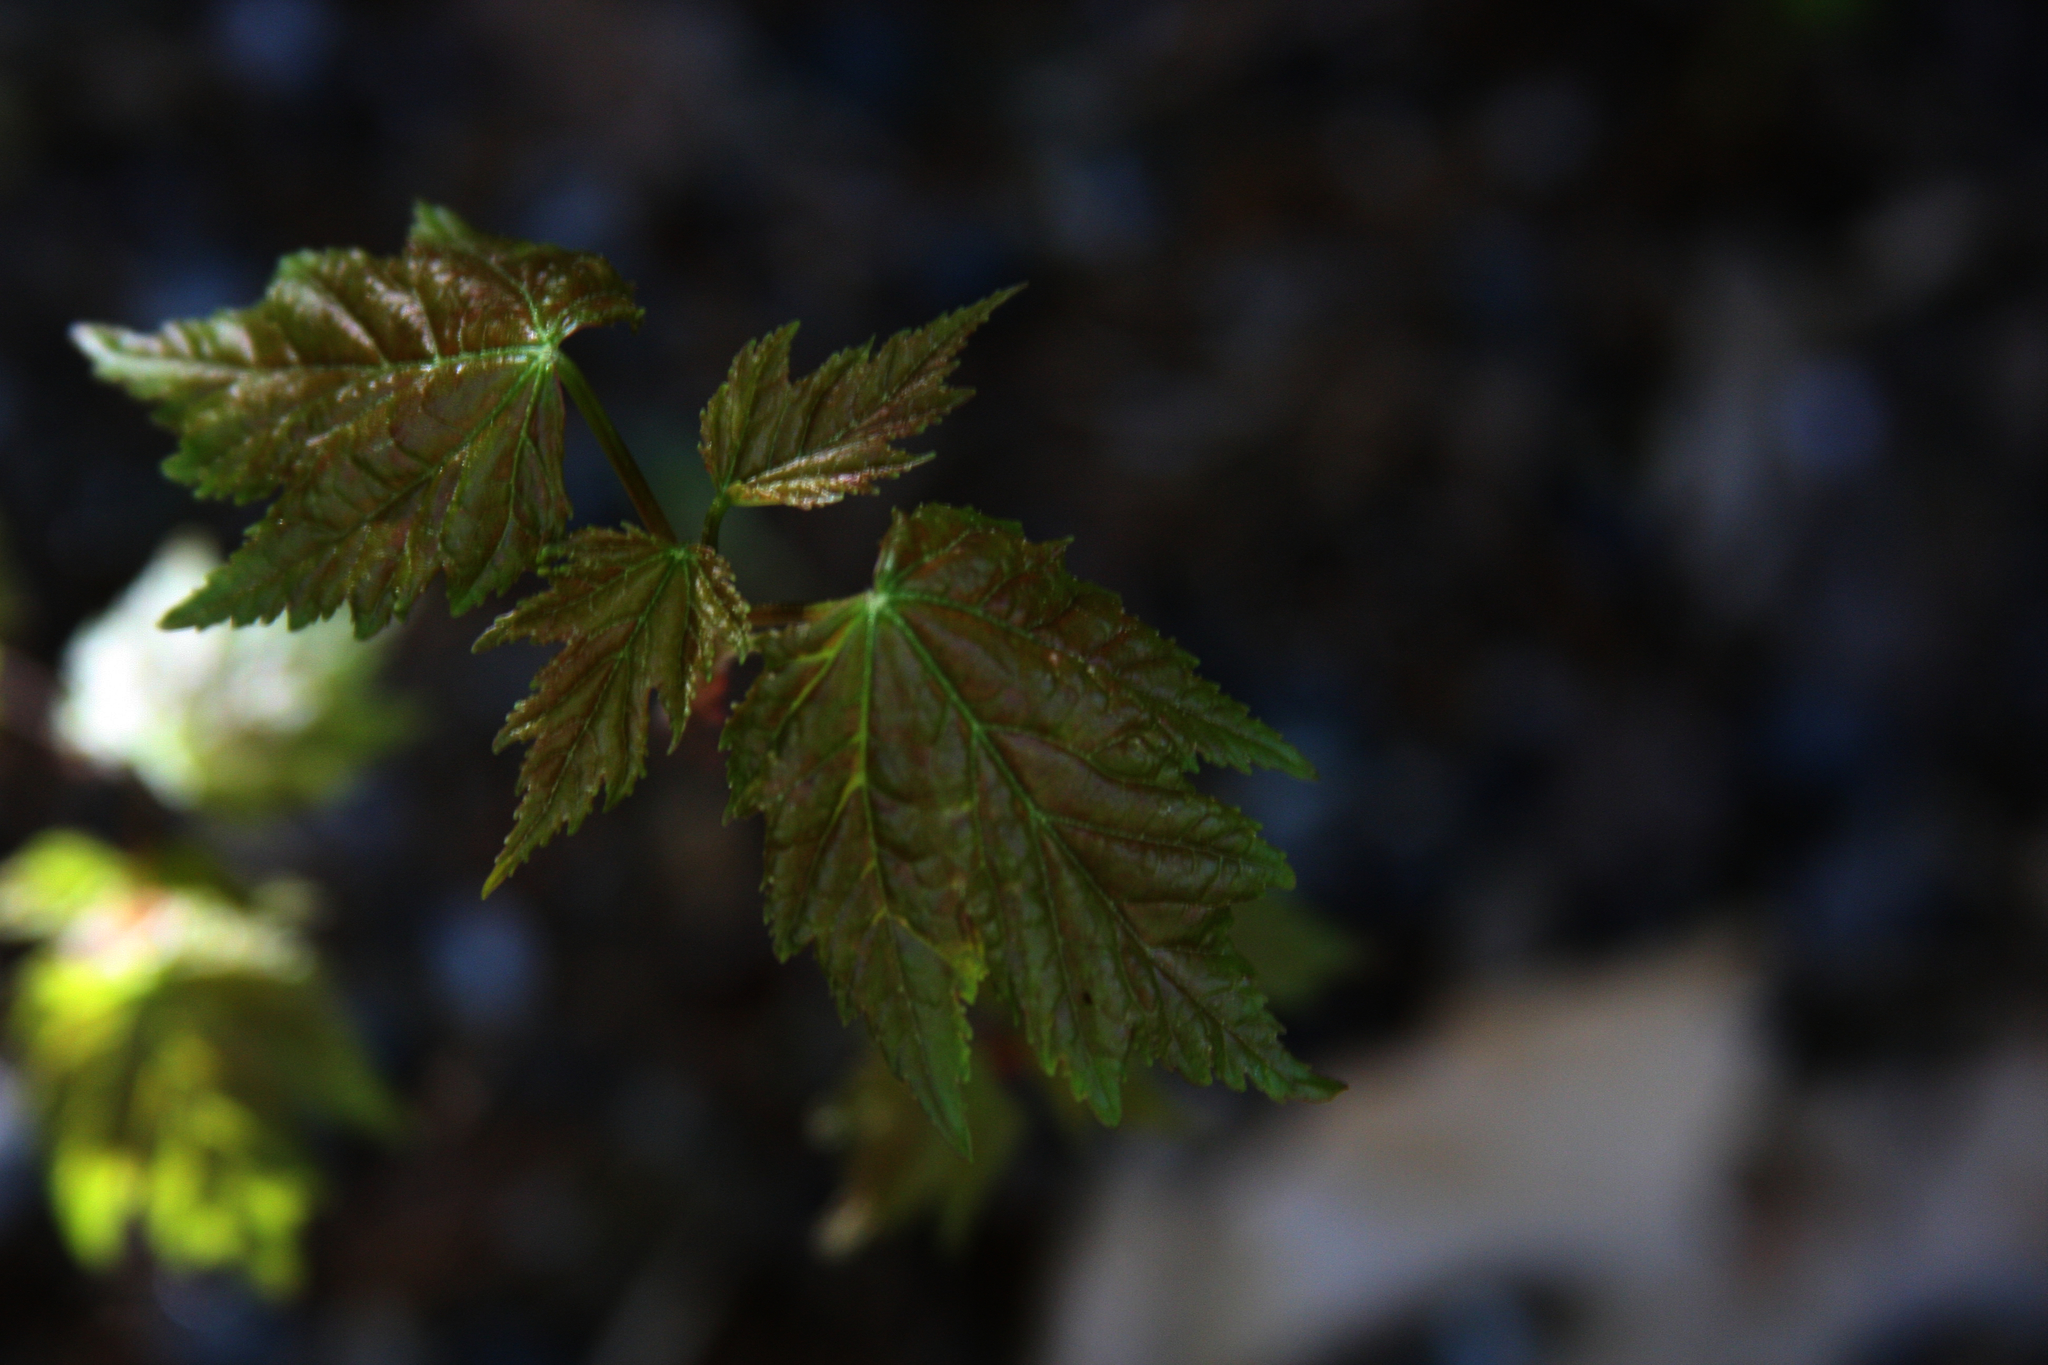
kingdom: Plantae
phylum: Tracheophyta
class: Magnoliopsida
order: Sapindales
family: Sapindaceae
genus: Acer
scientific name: Acer rubrum
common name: Red maple
